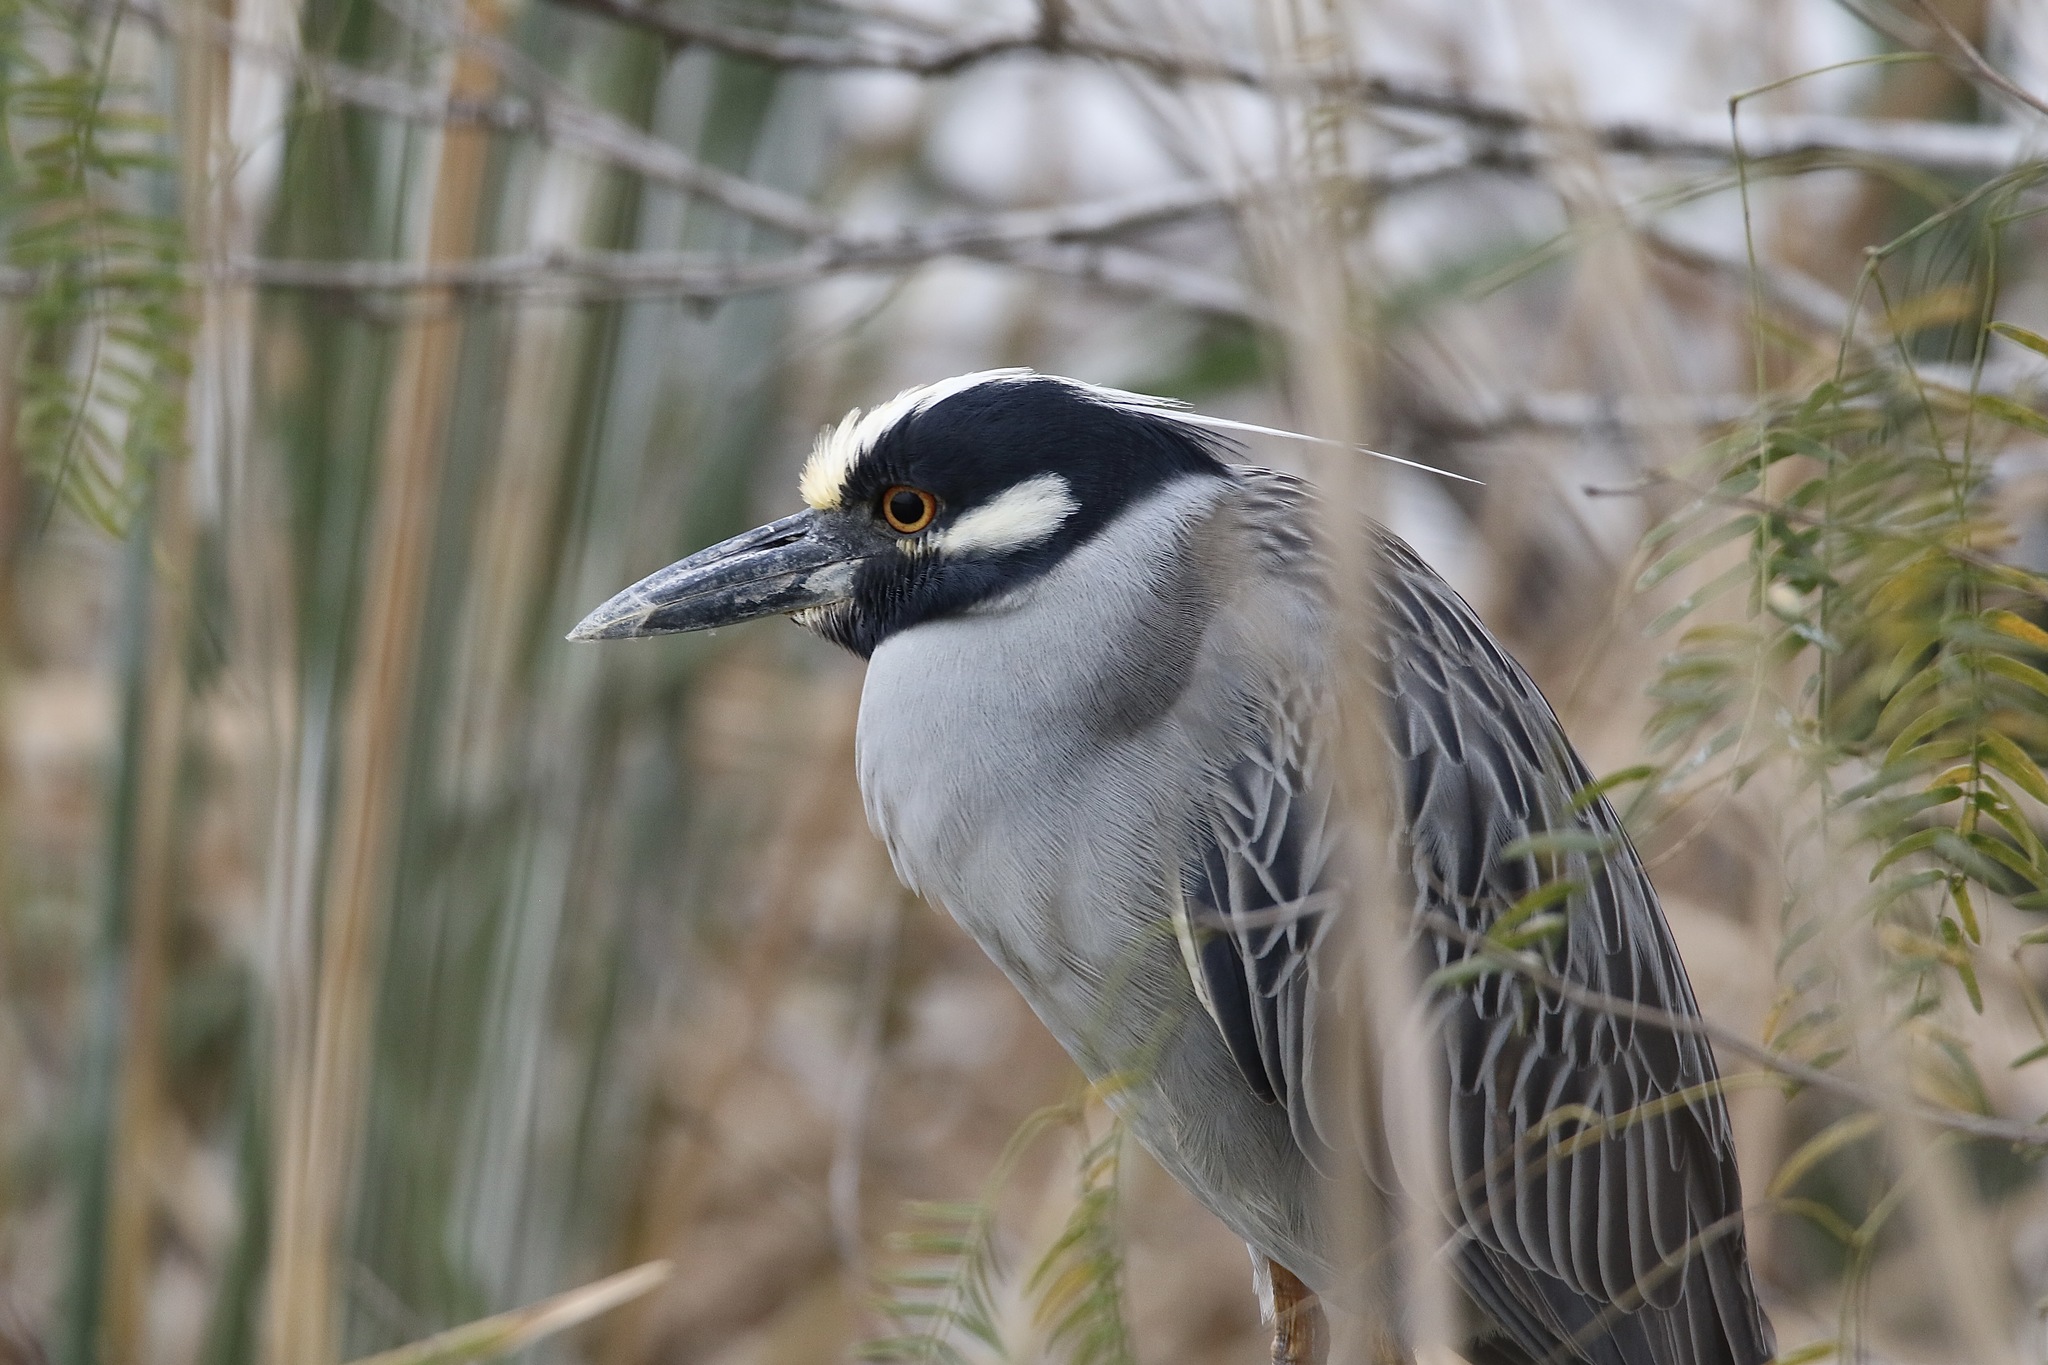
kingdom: Animalia
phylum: Chordata
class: Aves
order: Pelecaniformes
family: Ardeidae
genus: Nyctanassa
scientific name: Nyctanassa violacea
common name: Yellow-crowned night heron
